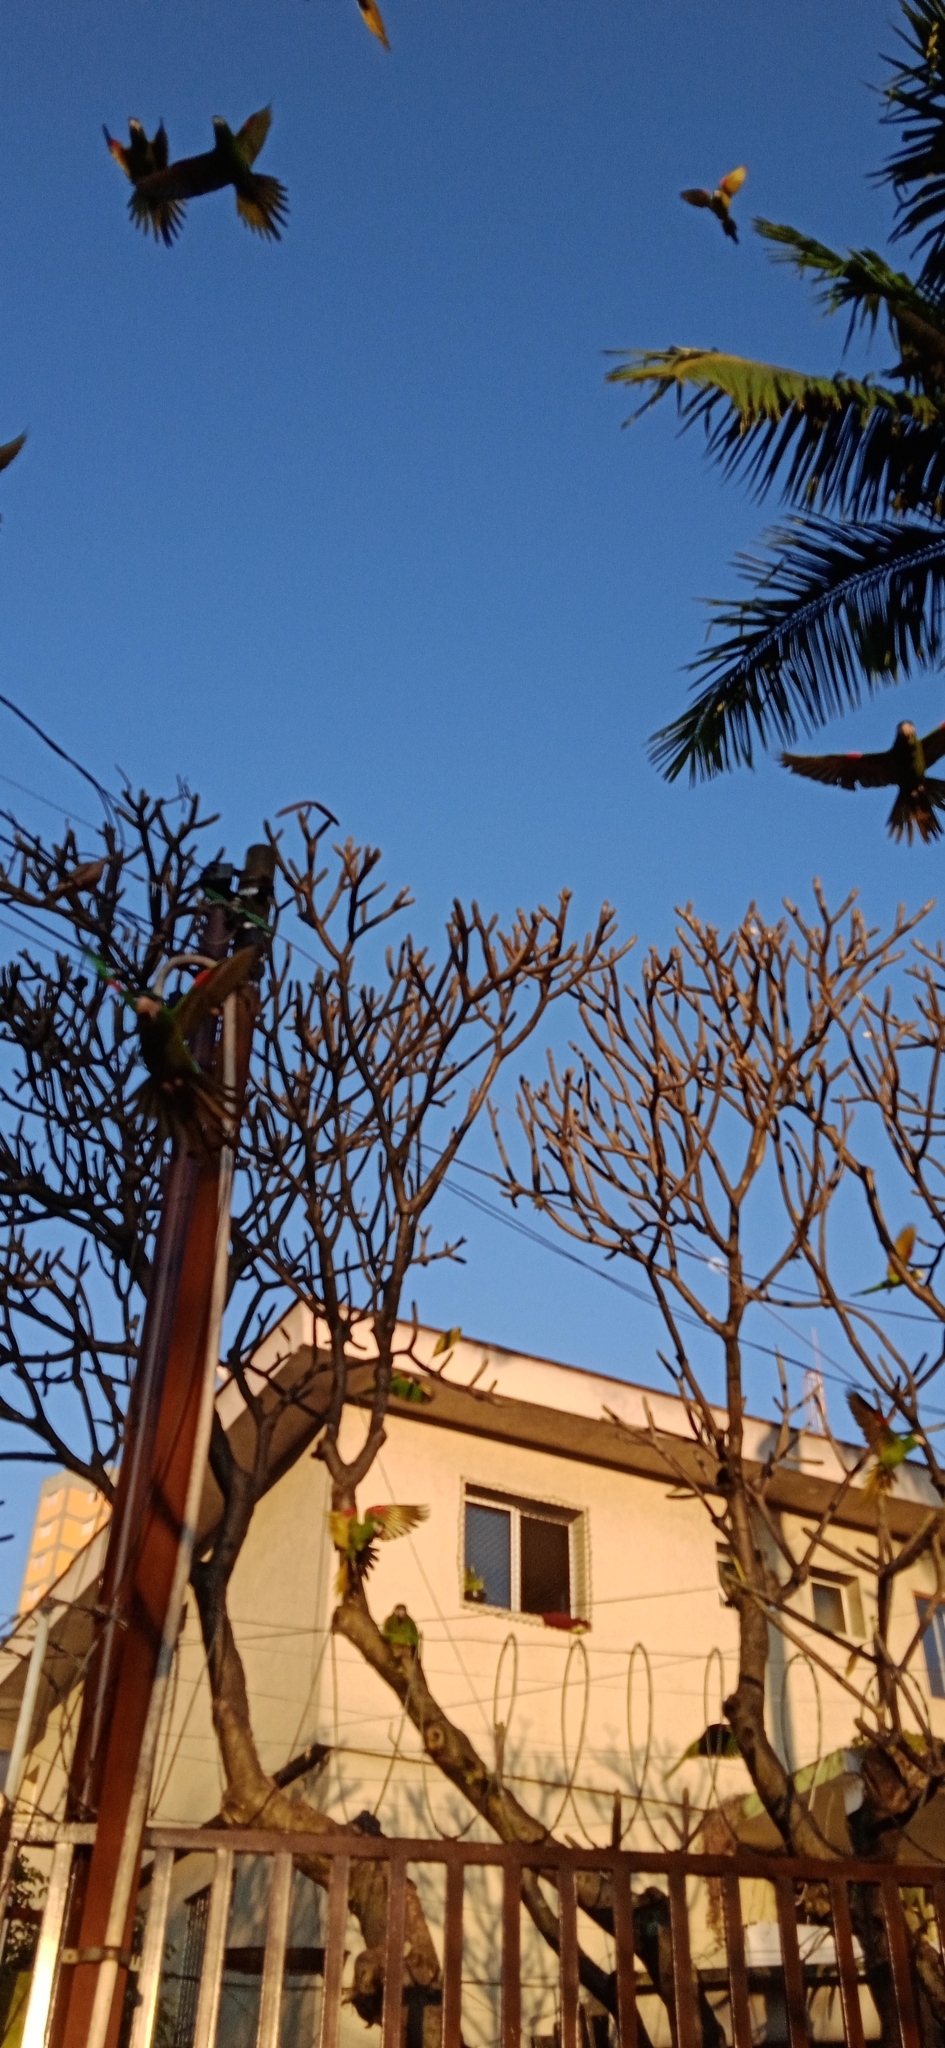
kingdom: Animalia
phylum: Chordata
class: Aves
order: Psittaciformes
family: Psittacidae
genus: Diopsittaca
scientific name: Diopsittaca nobilis
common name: Red-shouldered macaw
